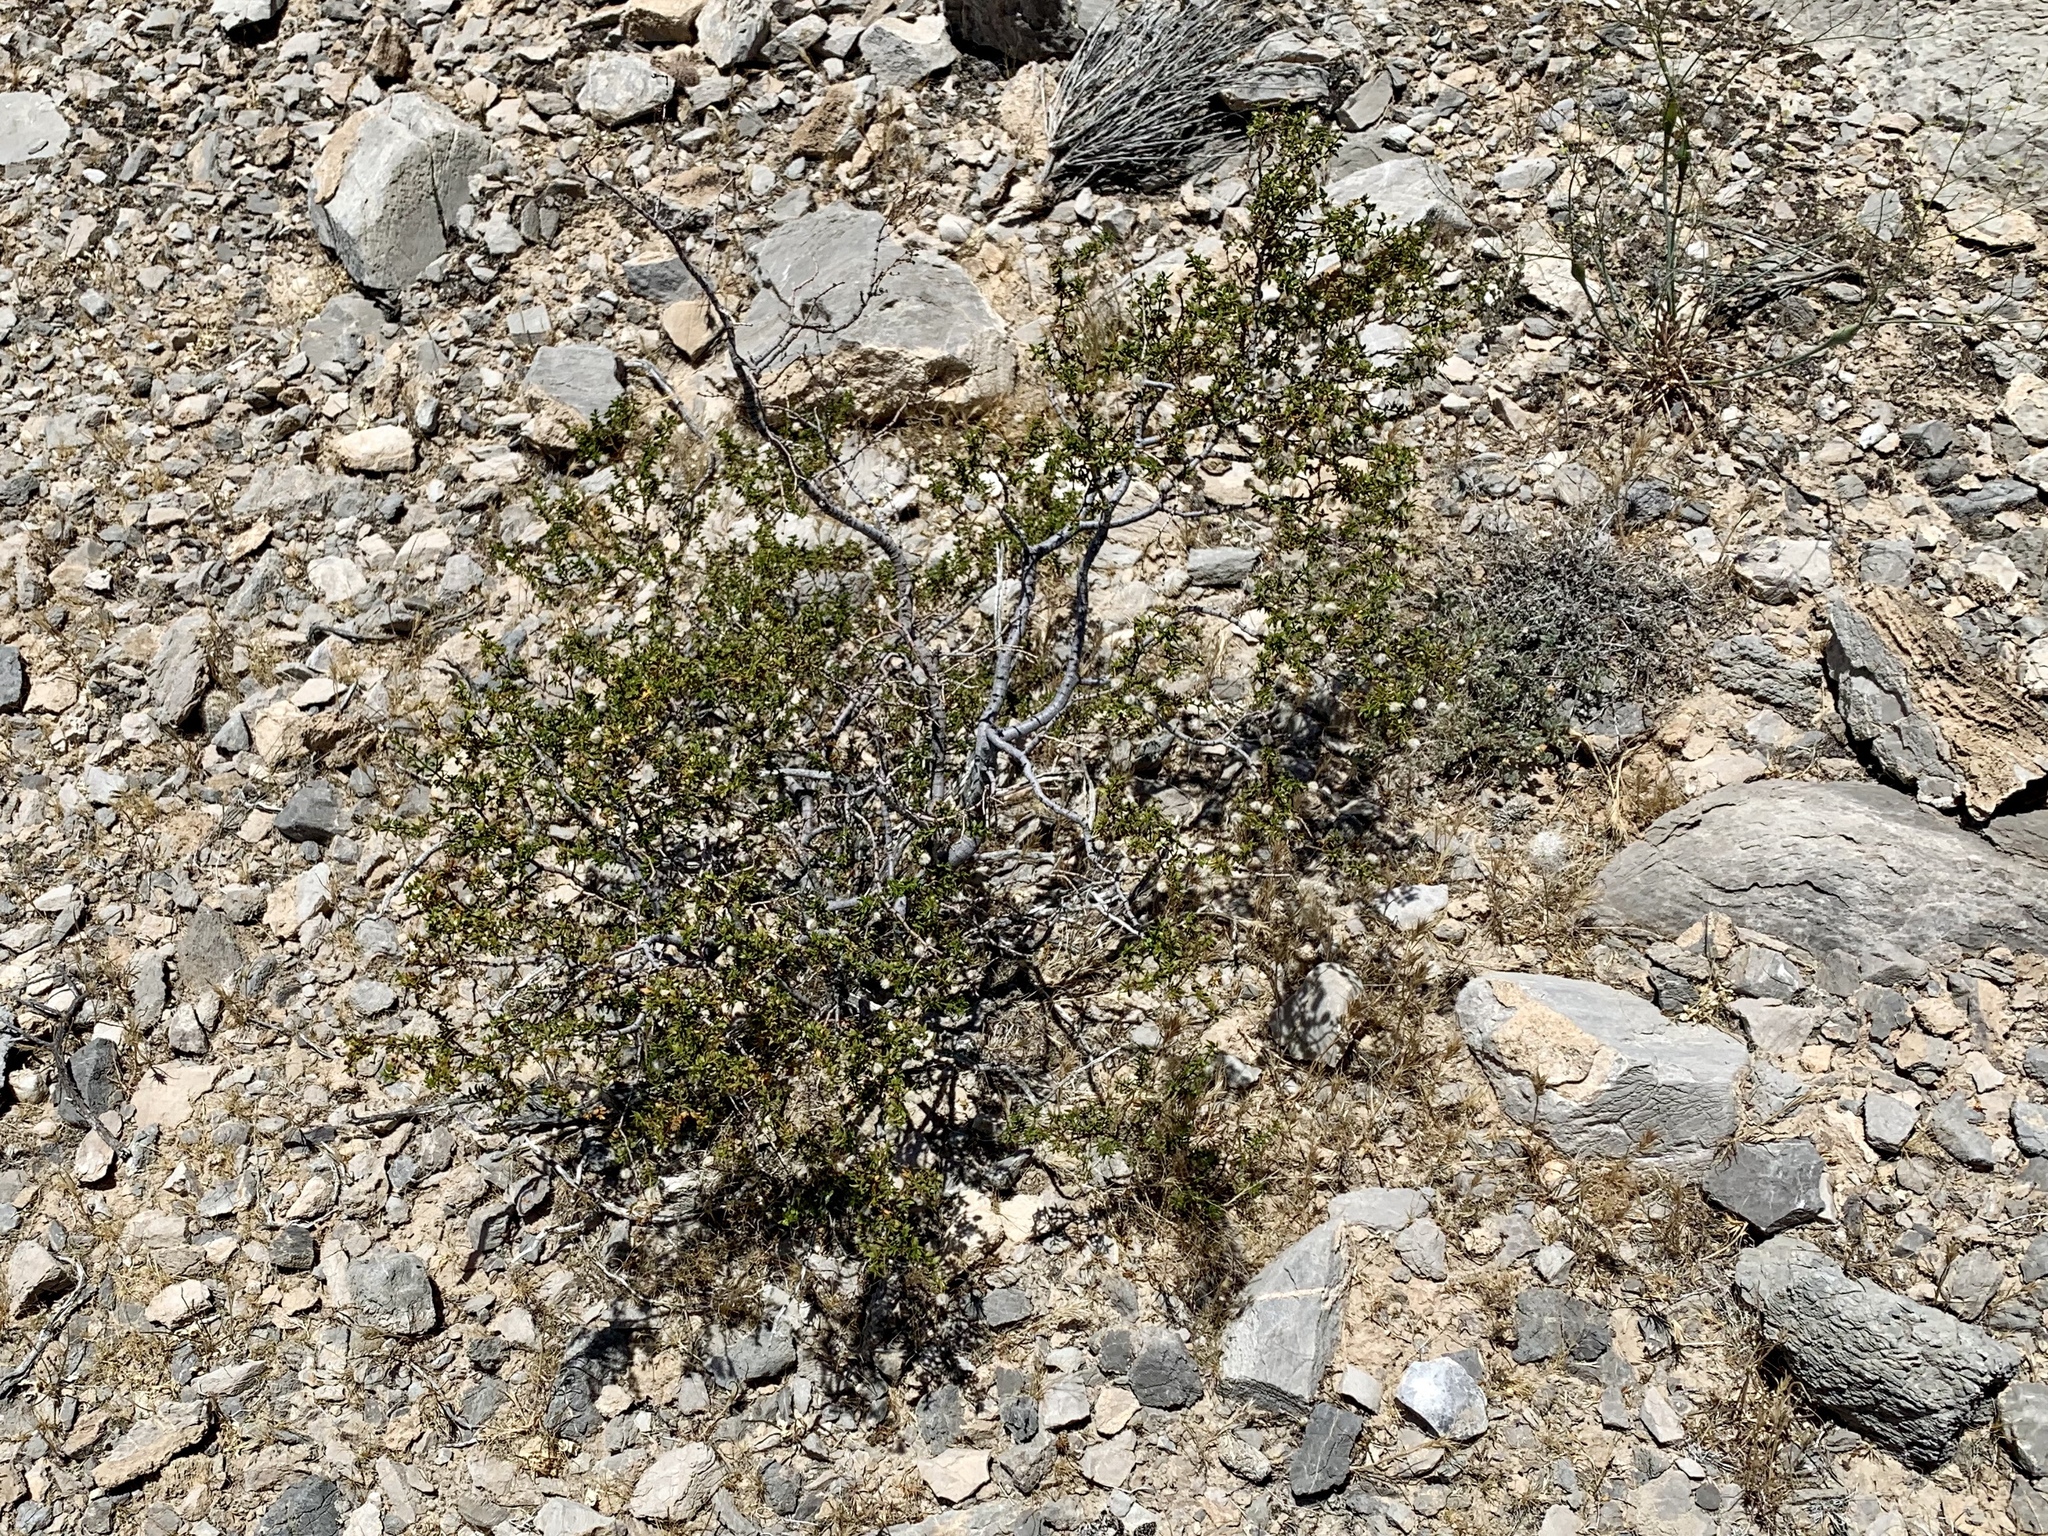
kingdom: Plantae
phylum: Tracheophyta
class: Magnoliopsida
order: Zygophyllales
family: Zygophyllaceae
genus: Larrea
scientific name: Larrea tridentata
